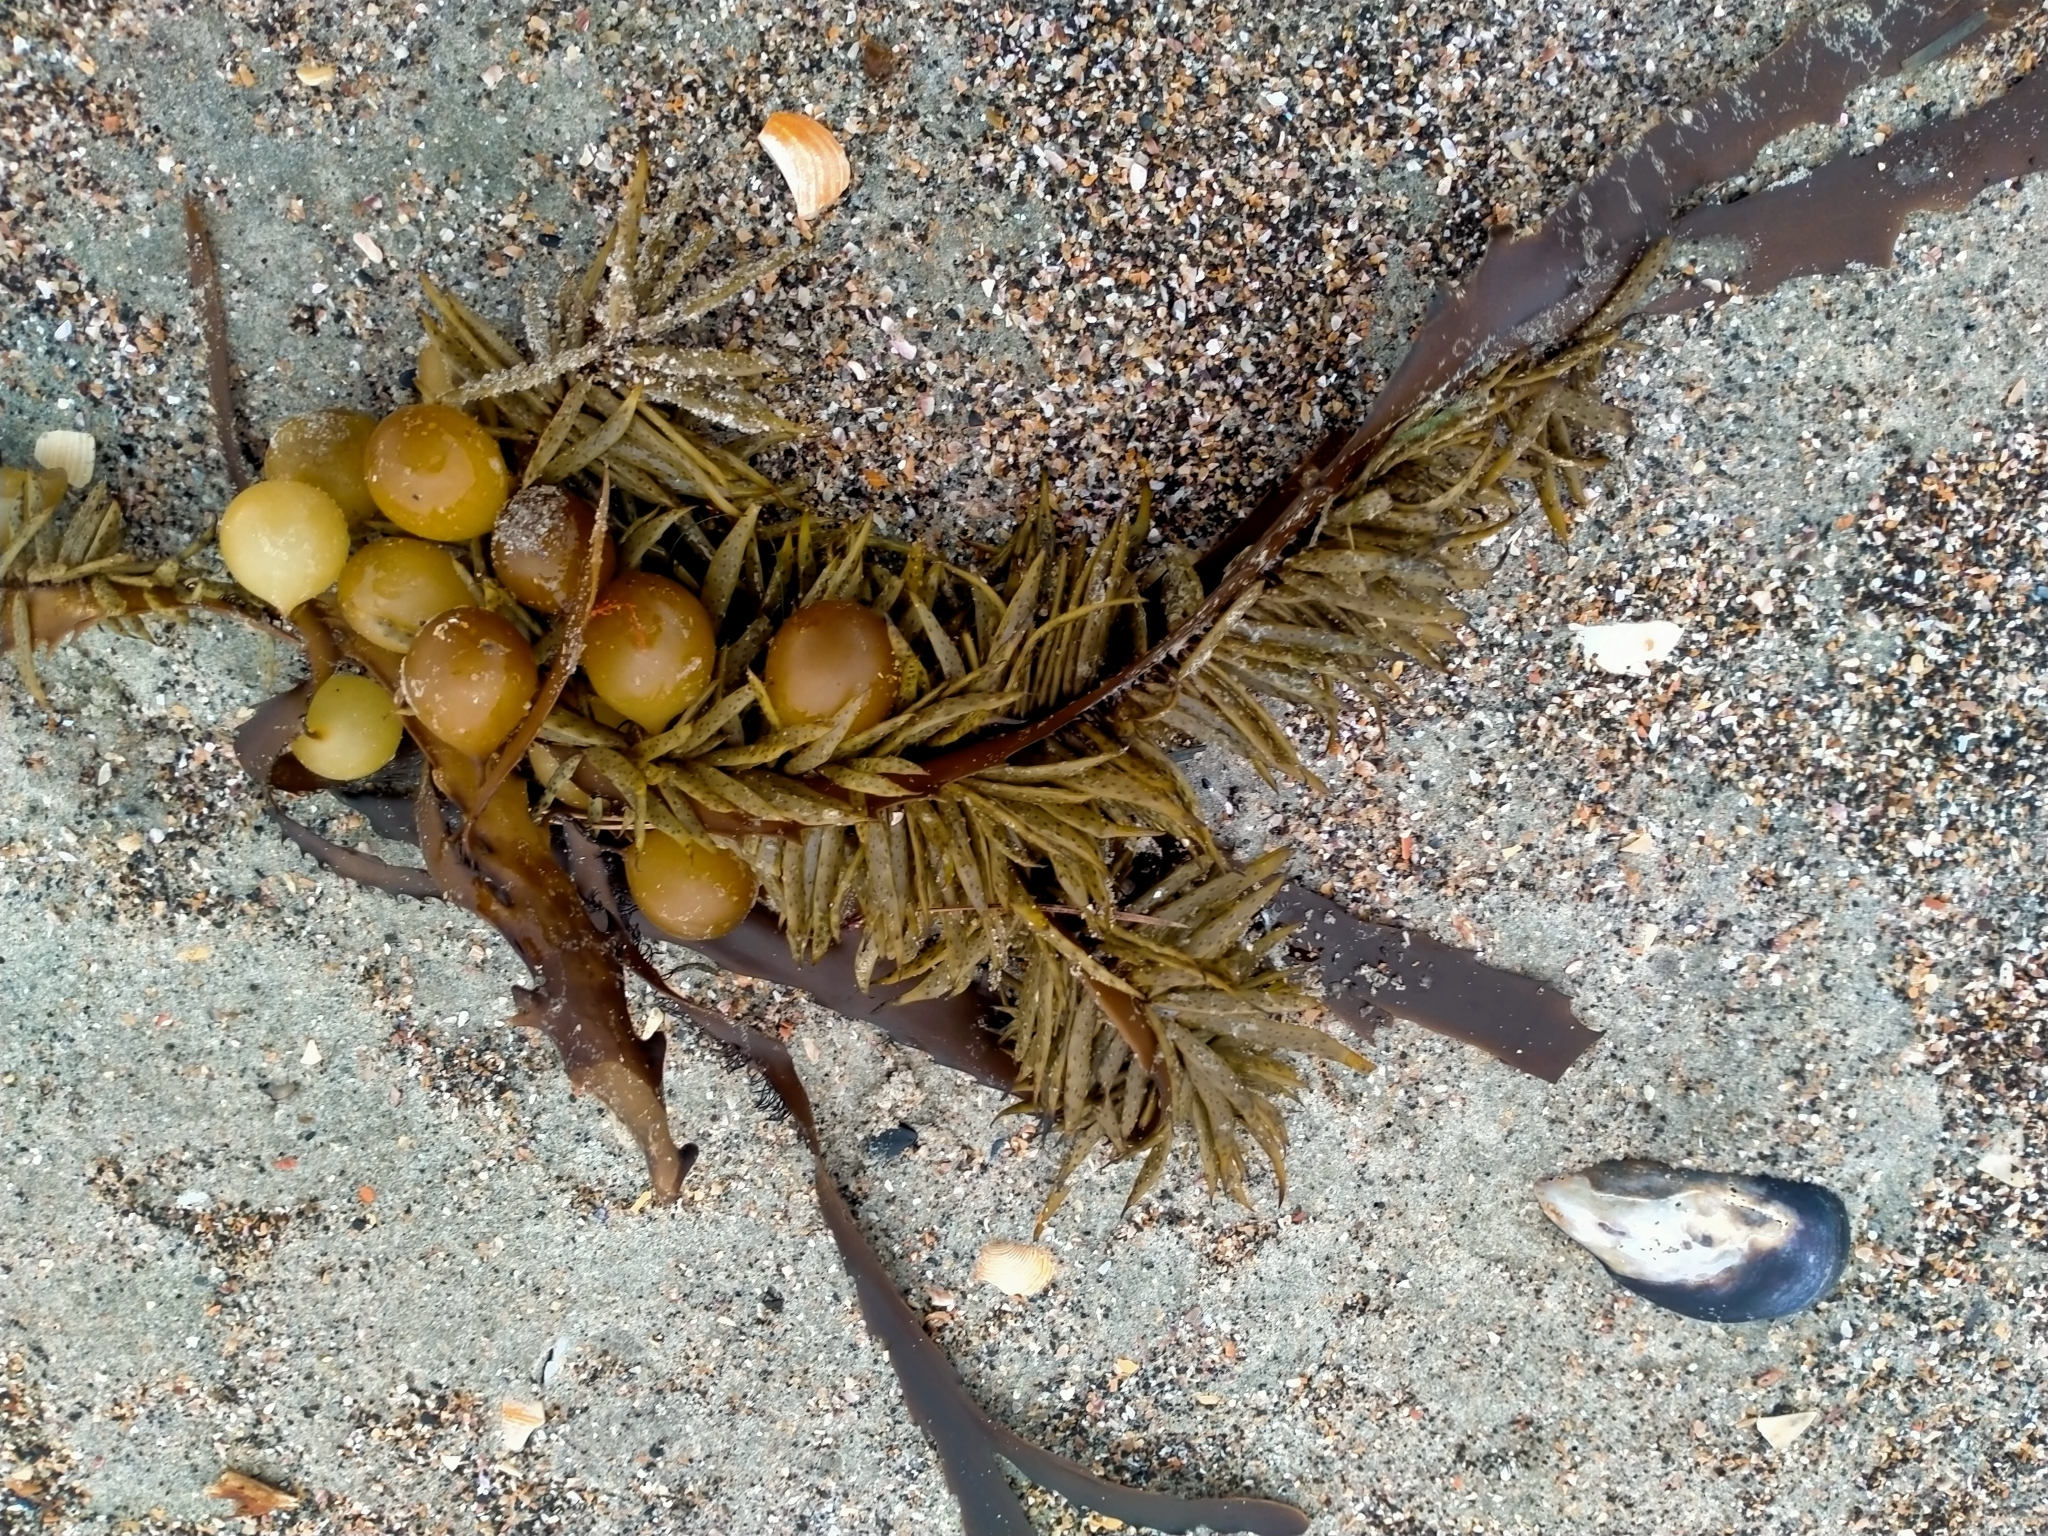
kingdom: Chromista
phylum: Ochrophyta
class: Phaeophyceae
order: Fucales
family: Seirococcaceae
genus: Marginariella
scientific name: Marginariella urvilliana
